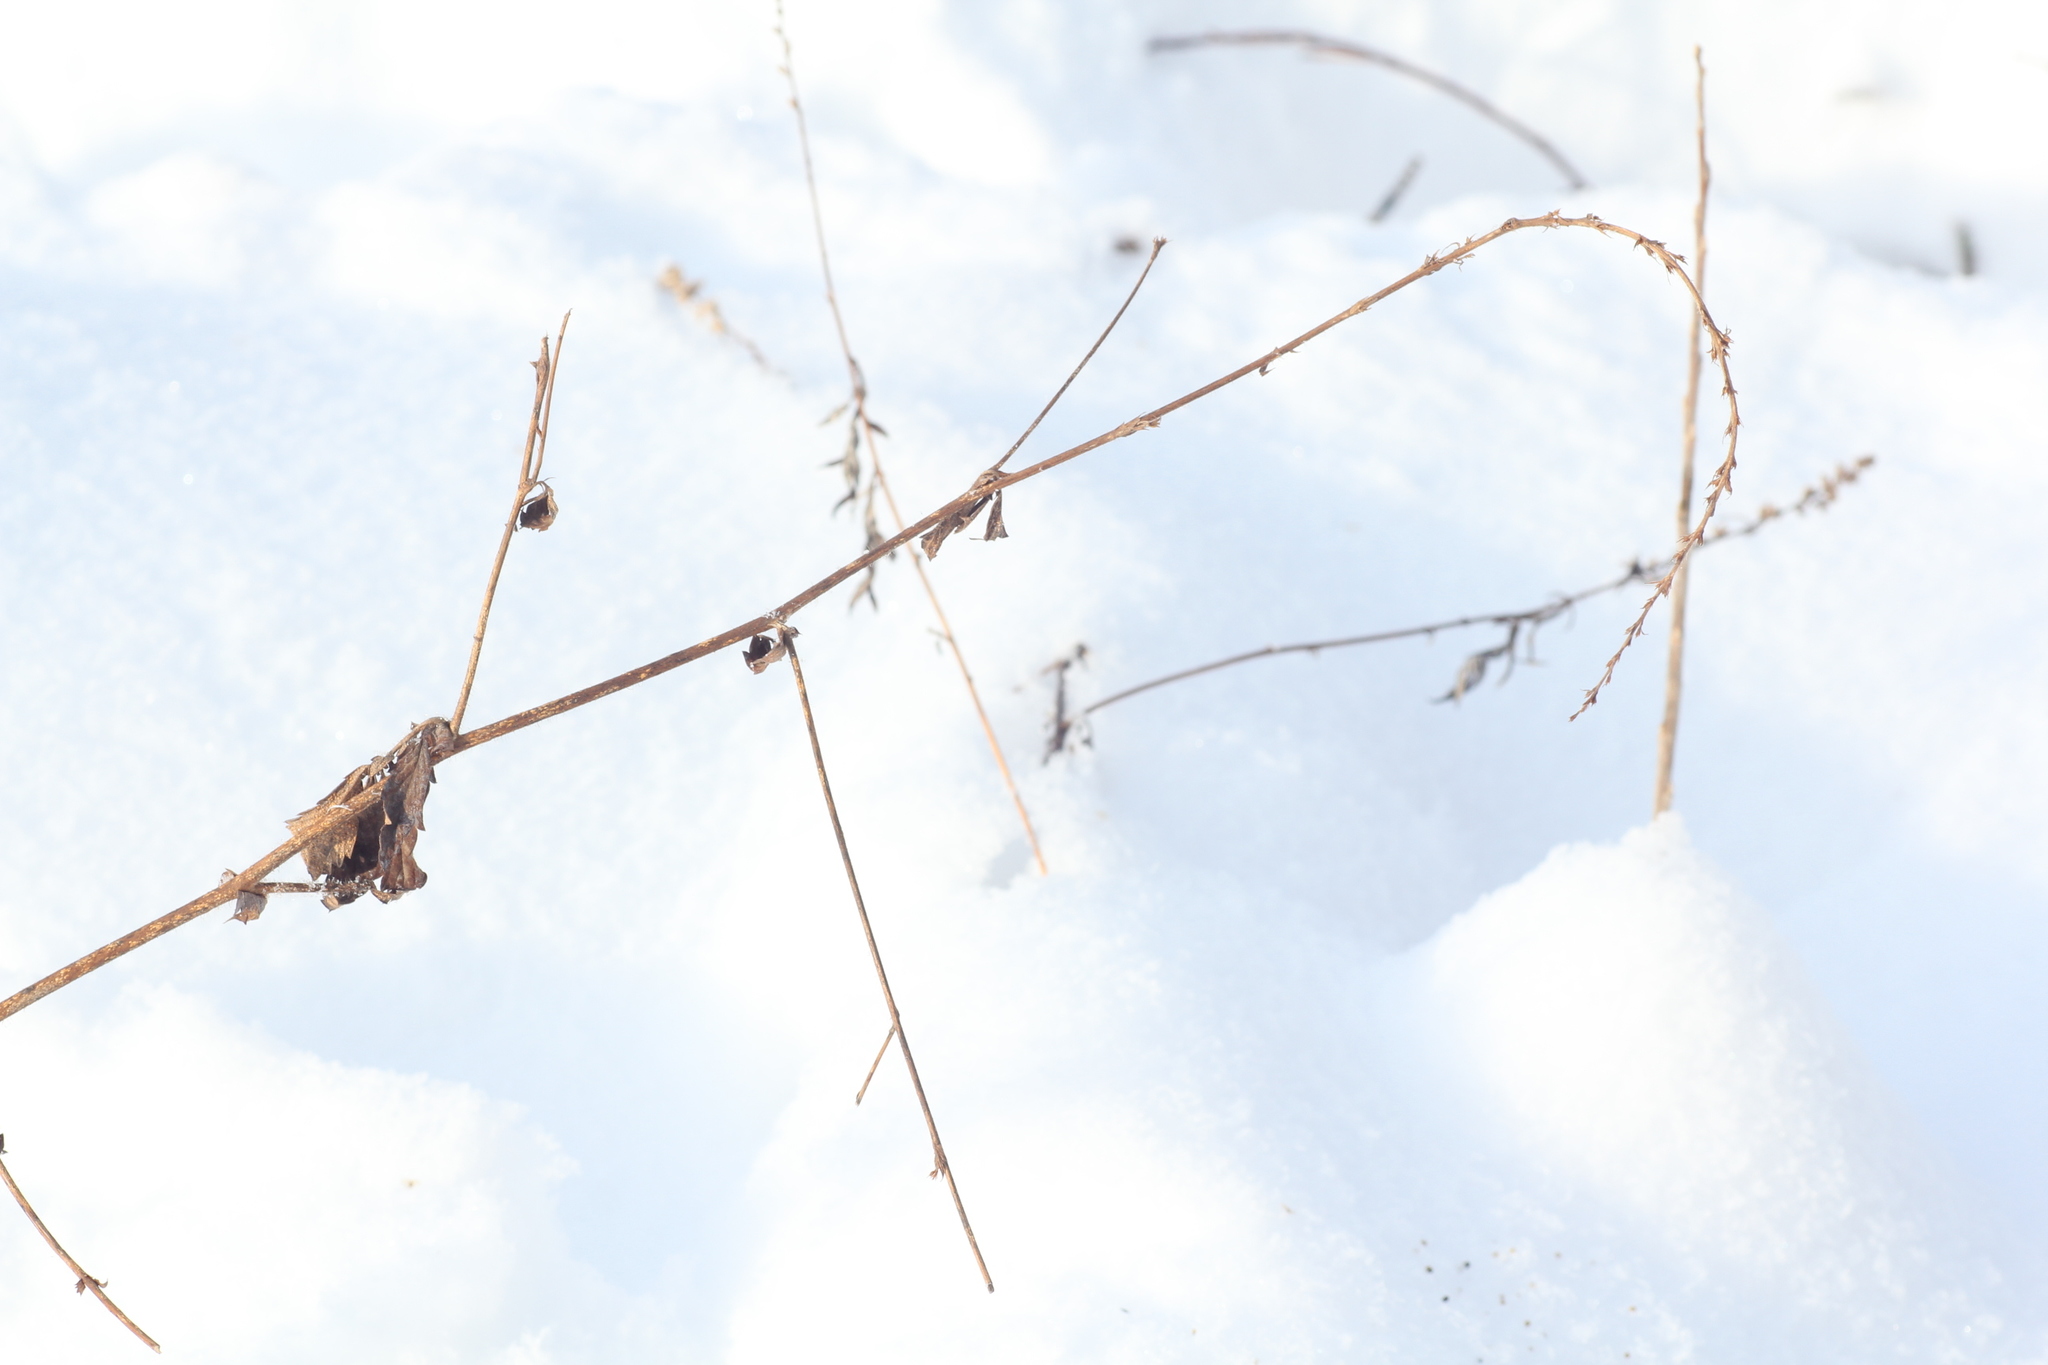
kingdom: Plantae
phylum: Tracheophyta
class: Magnoliopsida
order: Rosales
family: Rosaceae
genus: Agrimonia
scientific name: Agrimonia pilosa
